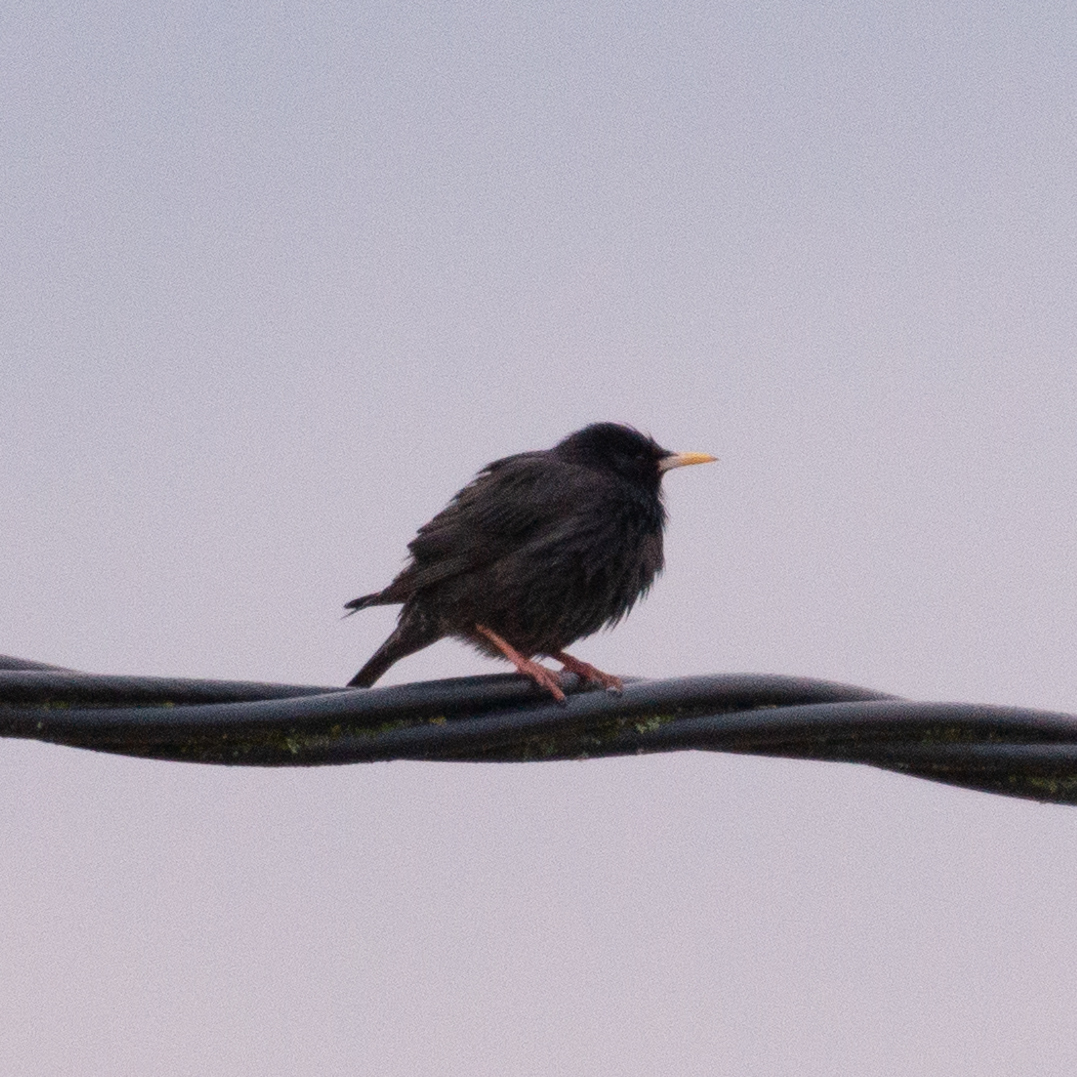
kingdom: Animalia
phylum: Chordata
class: Aves
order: Passeriformes
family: Sturnidae
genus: Sturnus
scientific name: Sturnus unicolor
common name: Spotless starling
